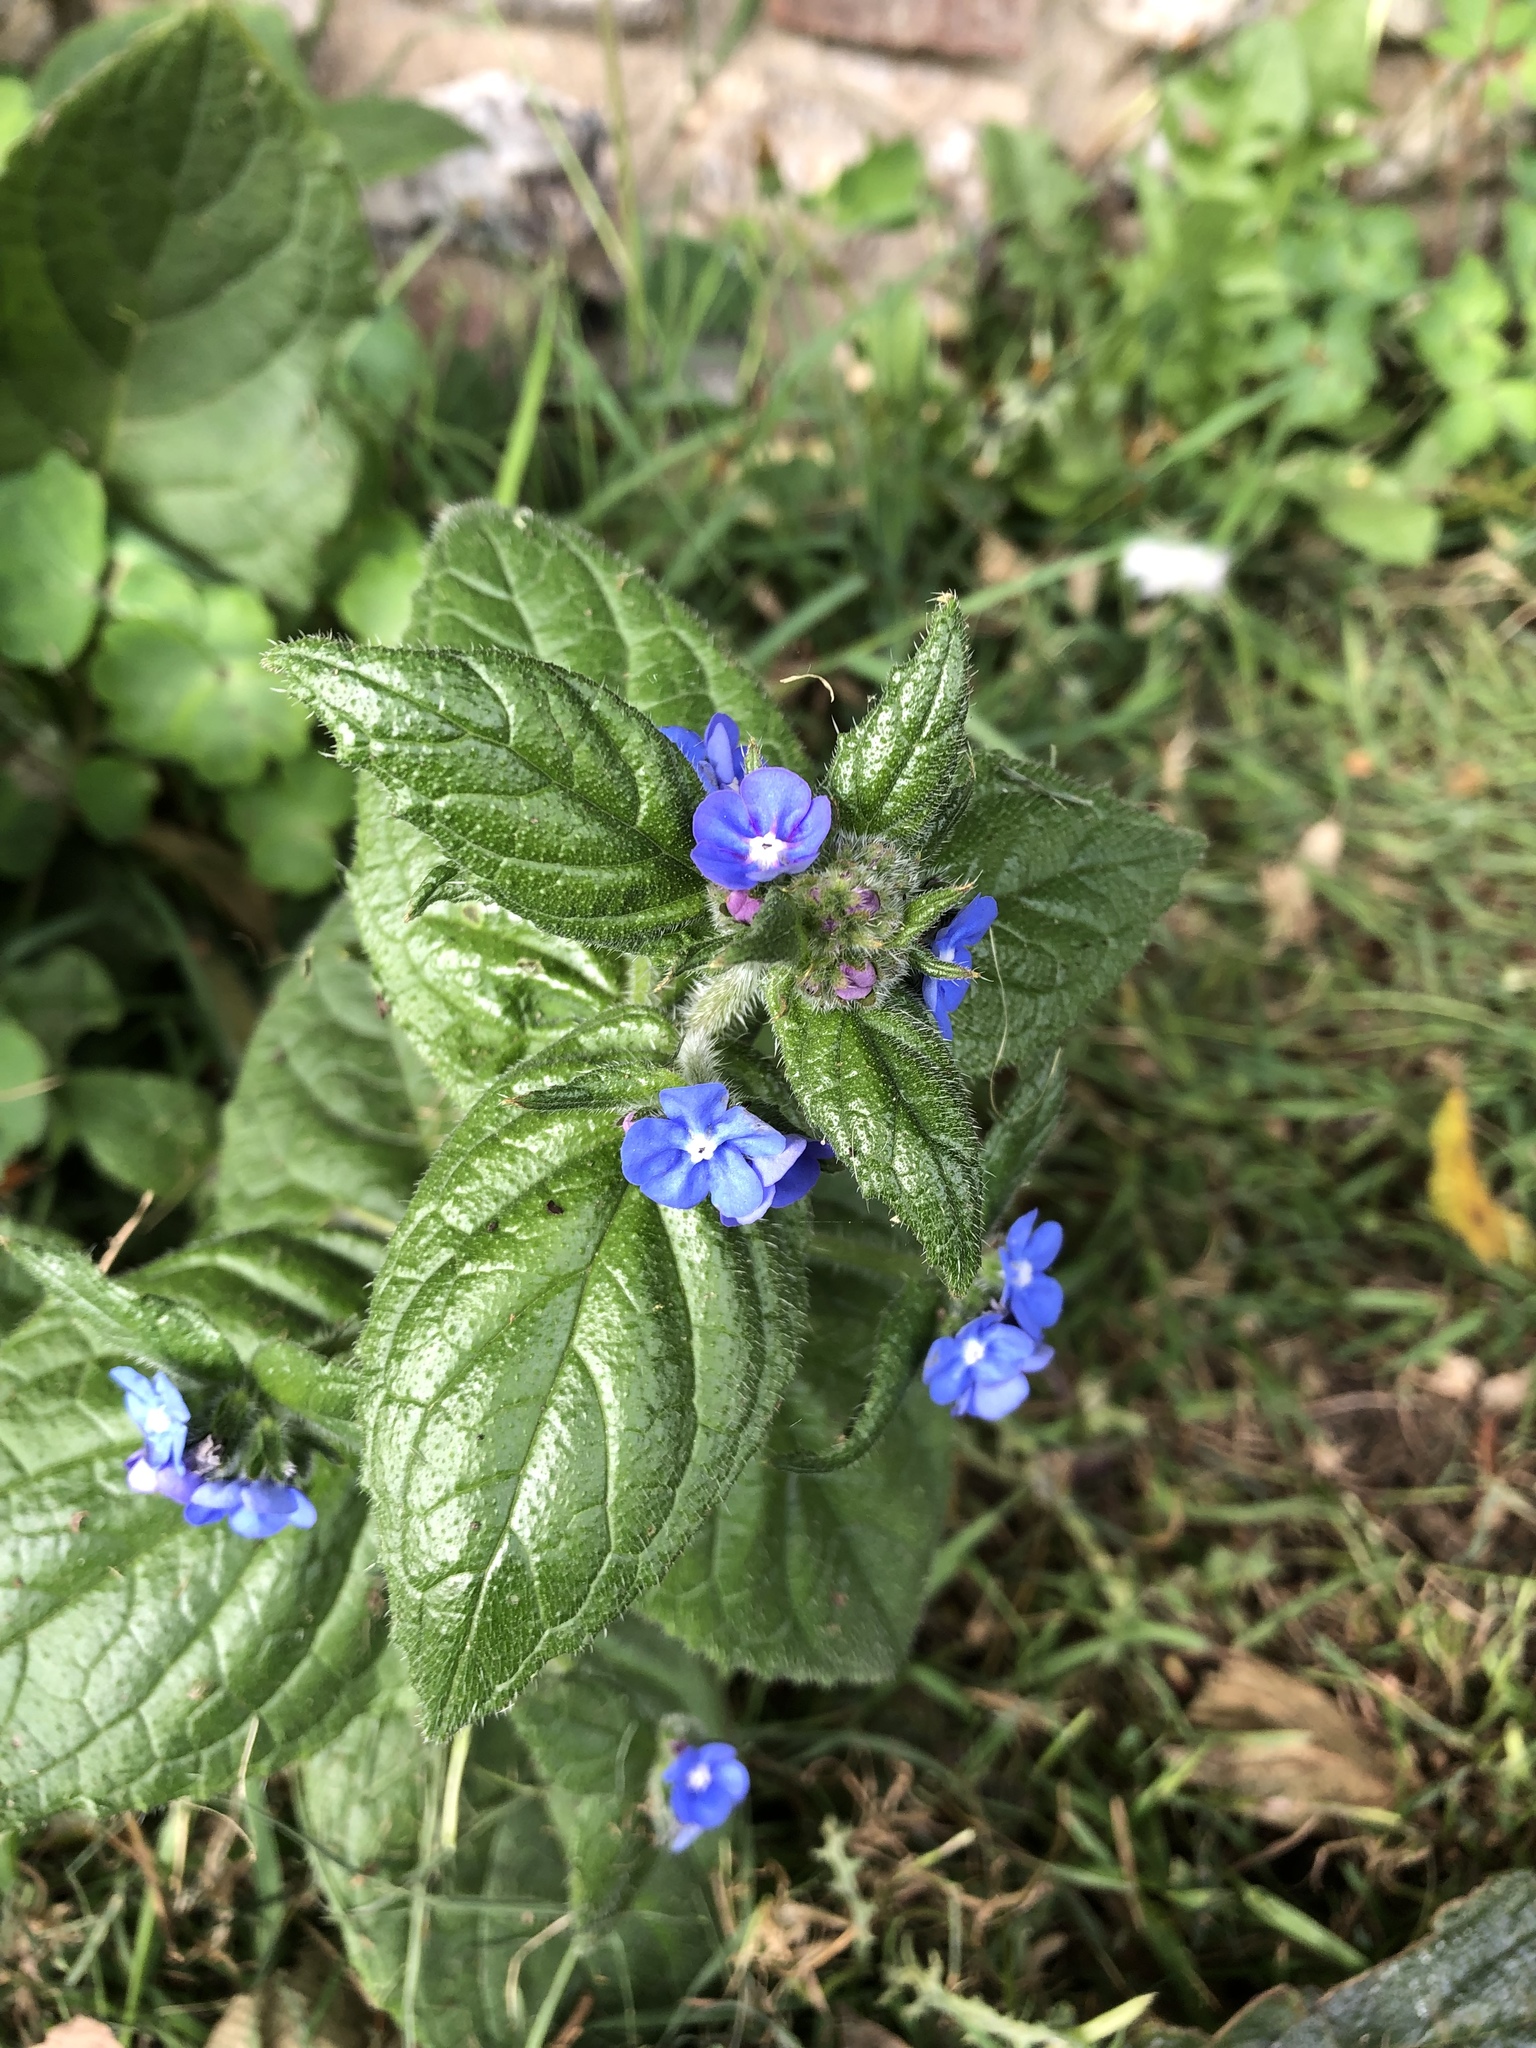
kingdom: Plantae
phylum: Tracheophyta
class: Magnoliopsida
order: Boraginales
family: Boraginaceae
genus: Pentaglottis
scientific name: Pentaglottis sempervirens
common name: Green alkanet
